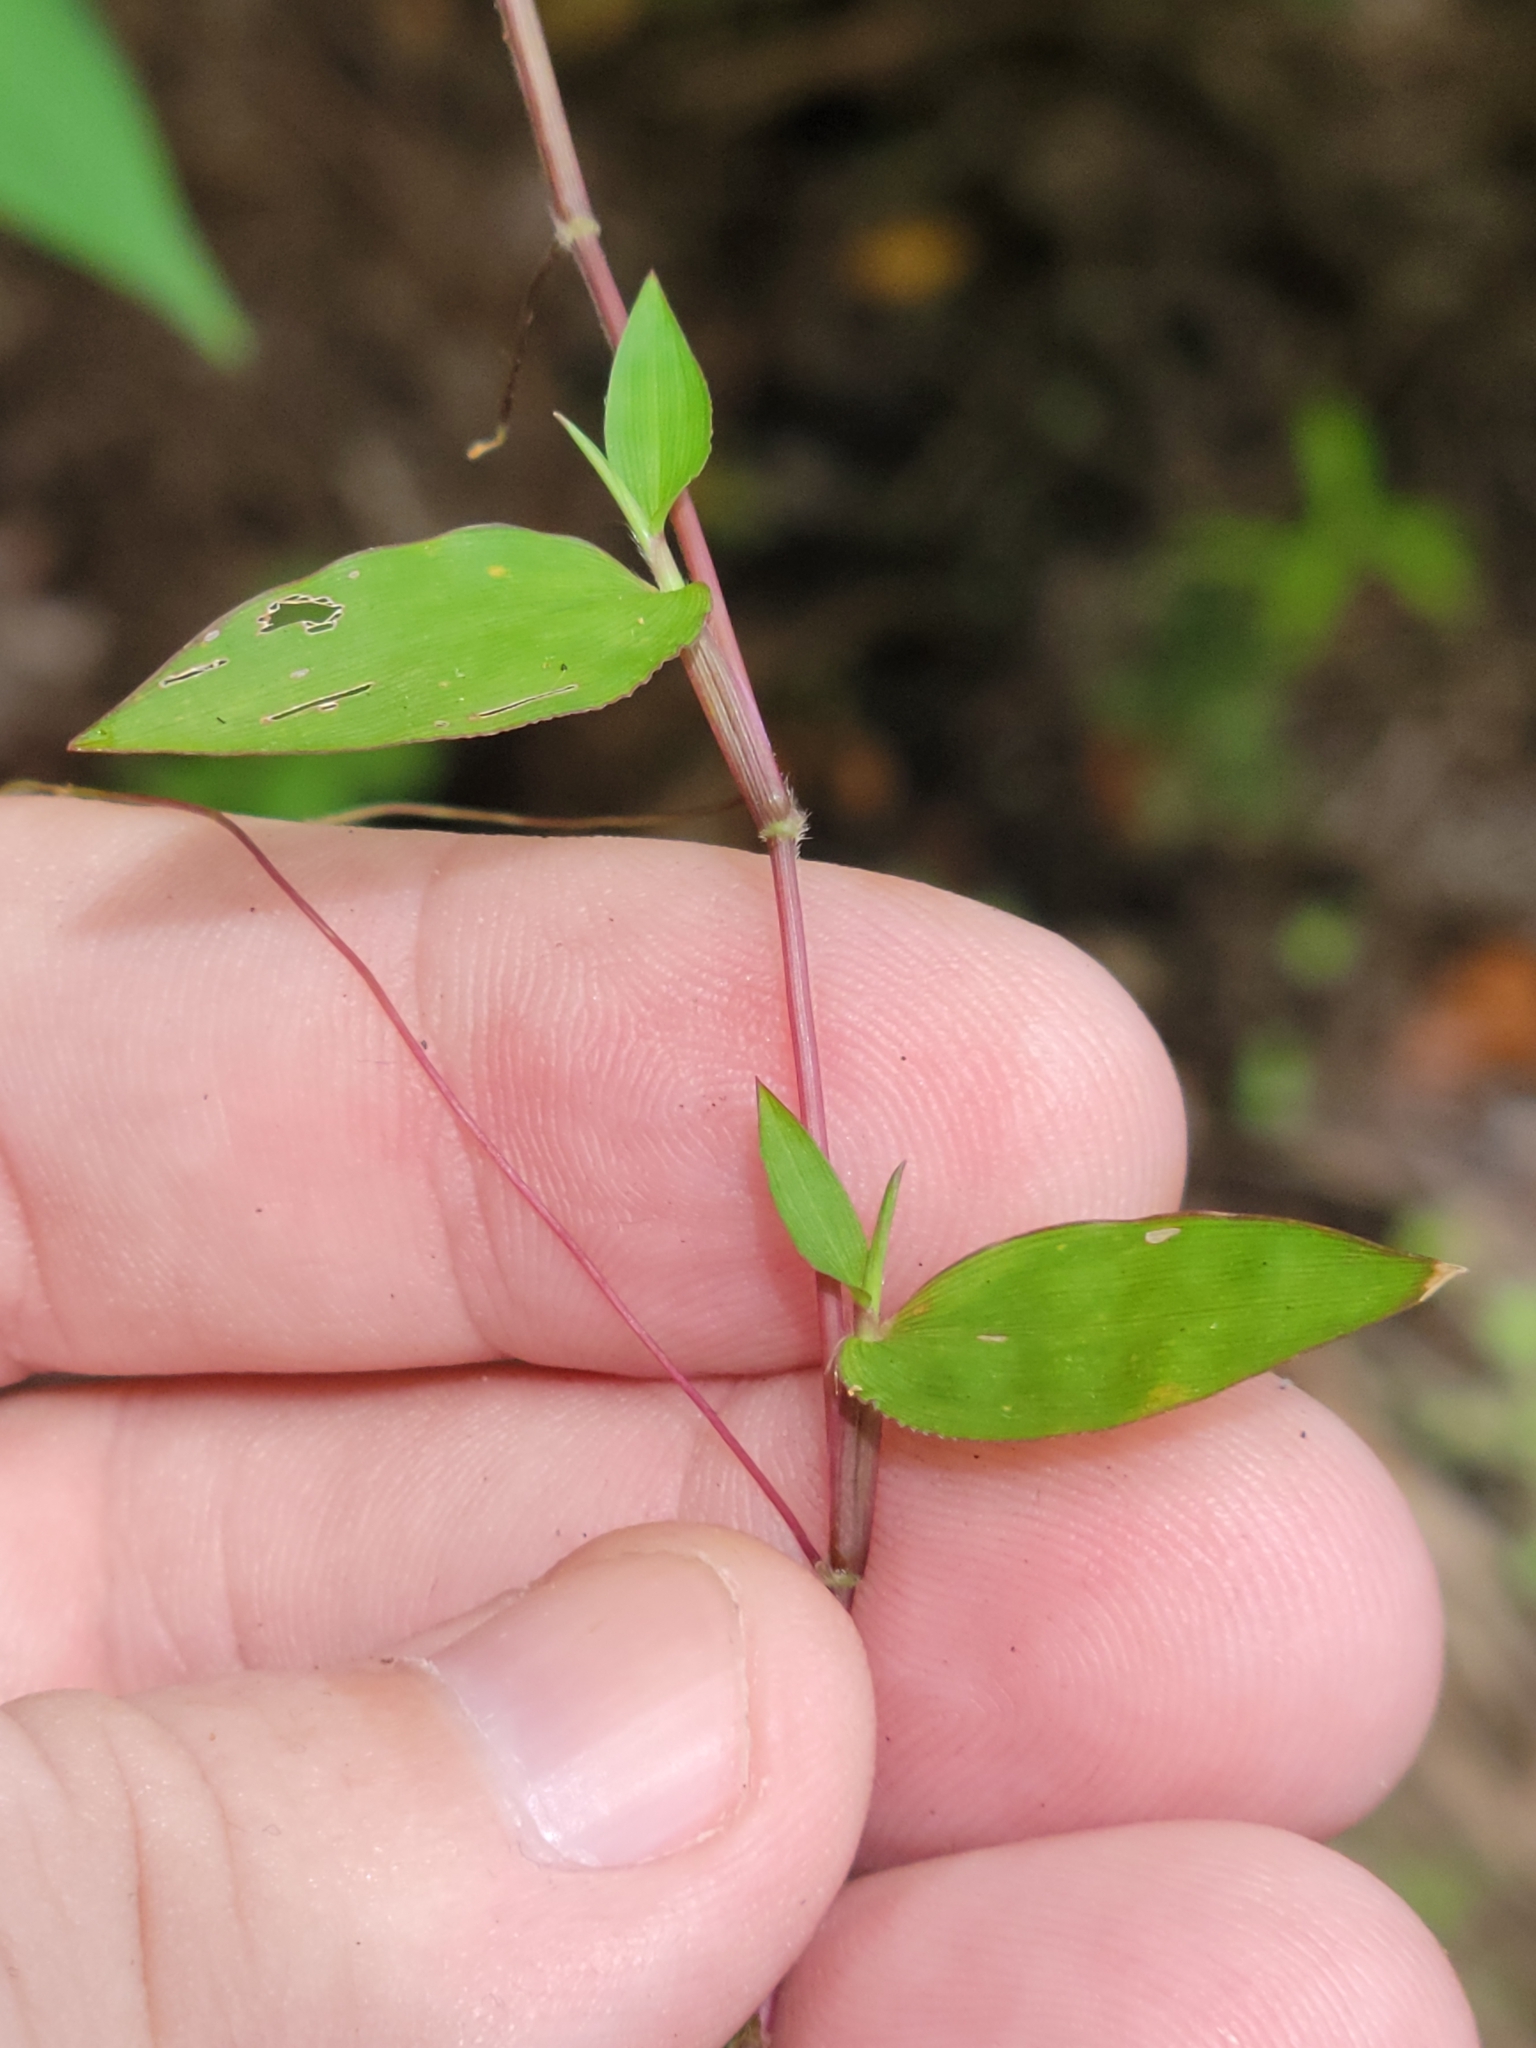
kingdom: Plantae
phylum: Tracheophyta
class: Liliopsida
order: Poales
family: Poaceae
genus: Oplismenus
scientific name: Oplismenus compositus
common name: Running mountain grass
